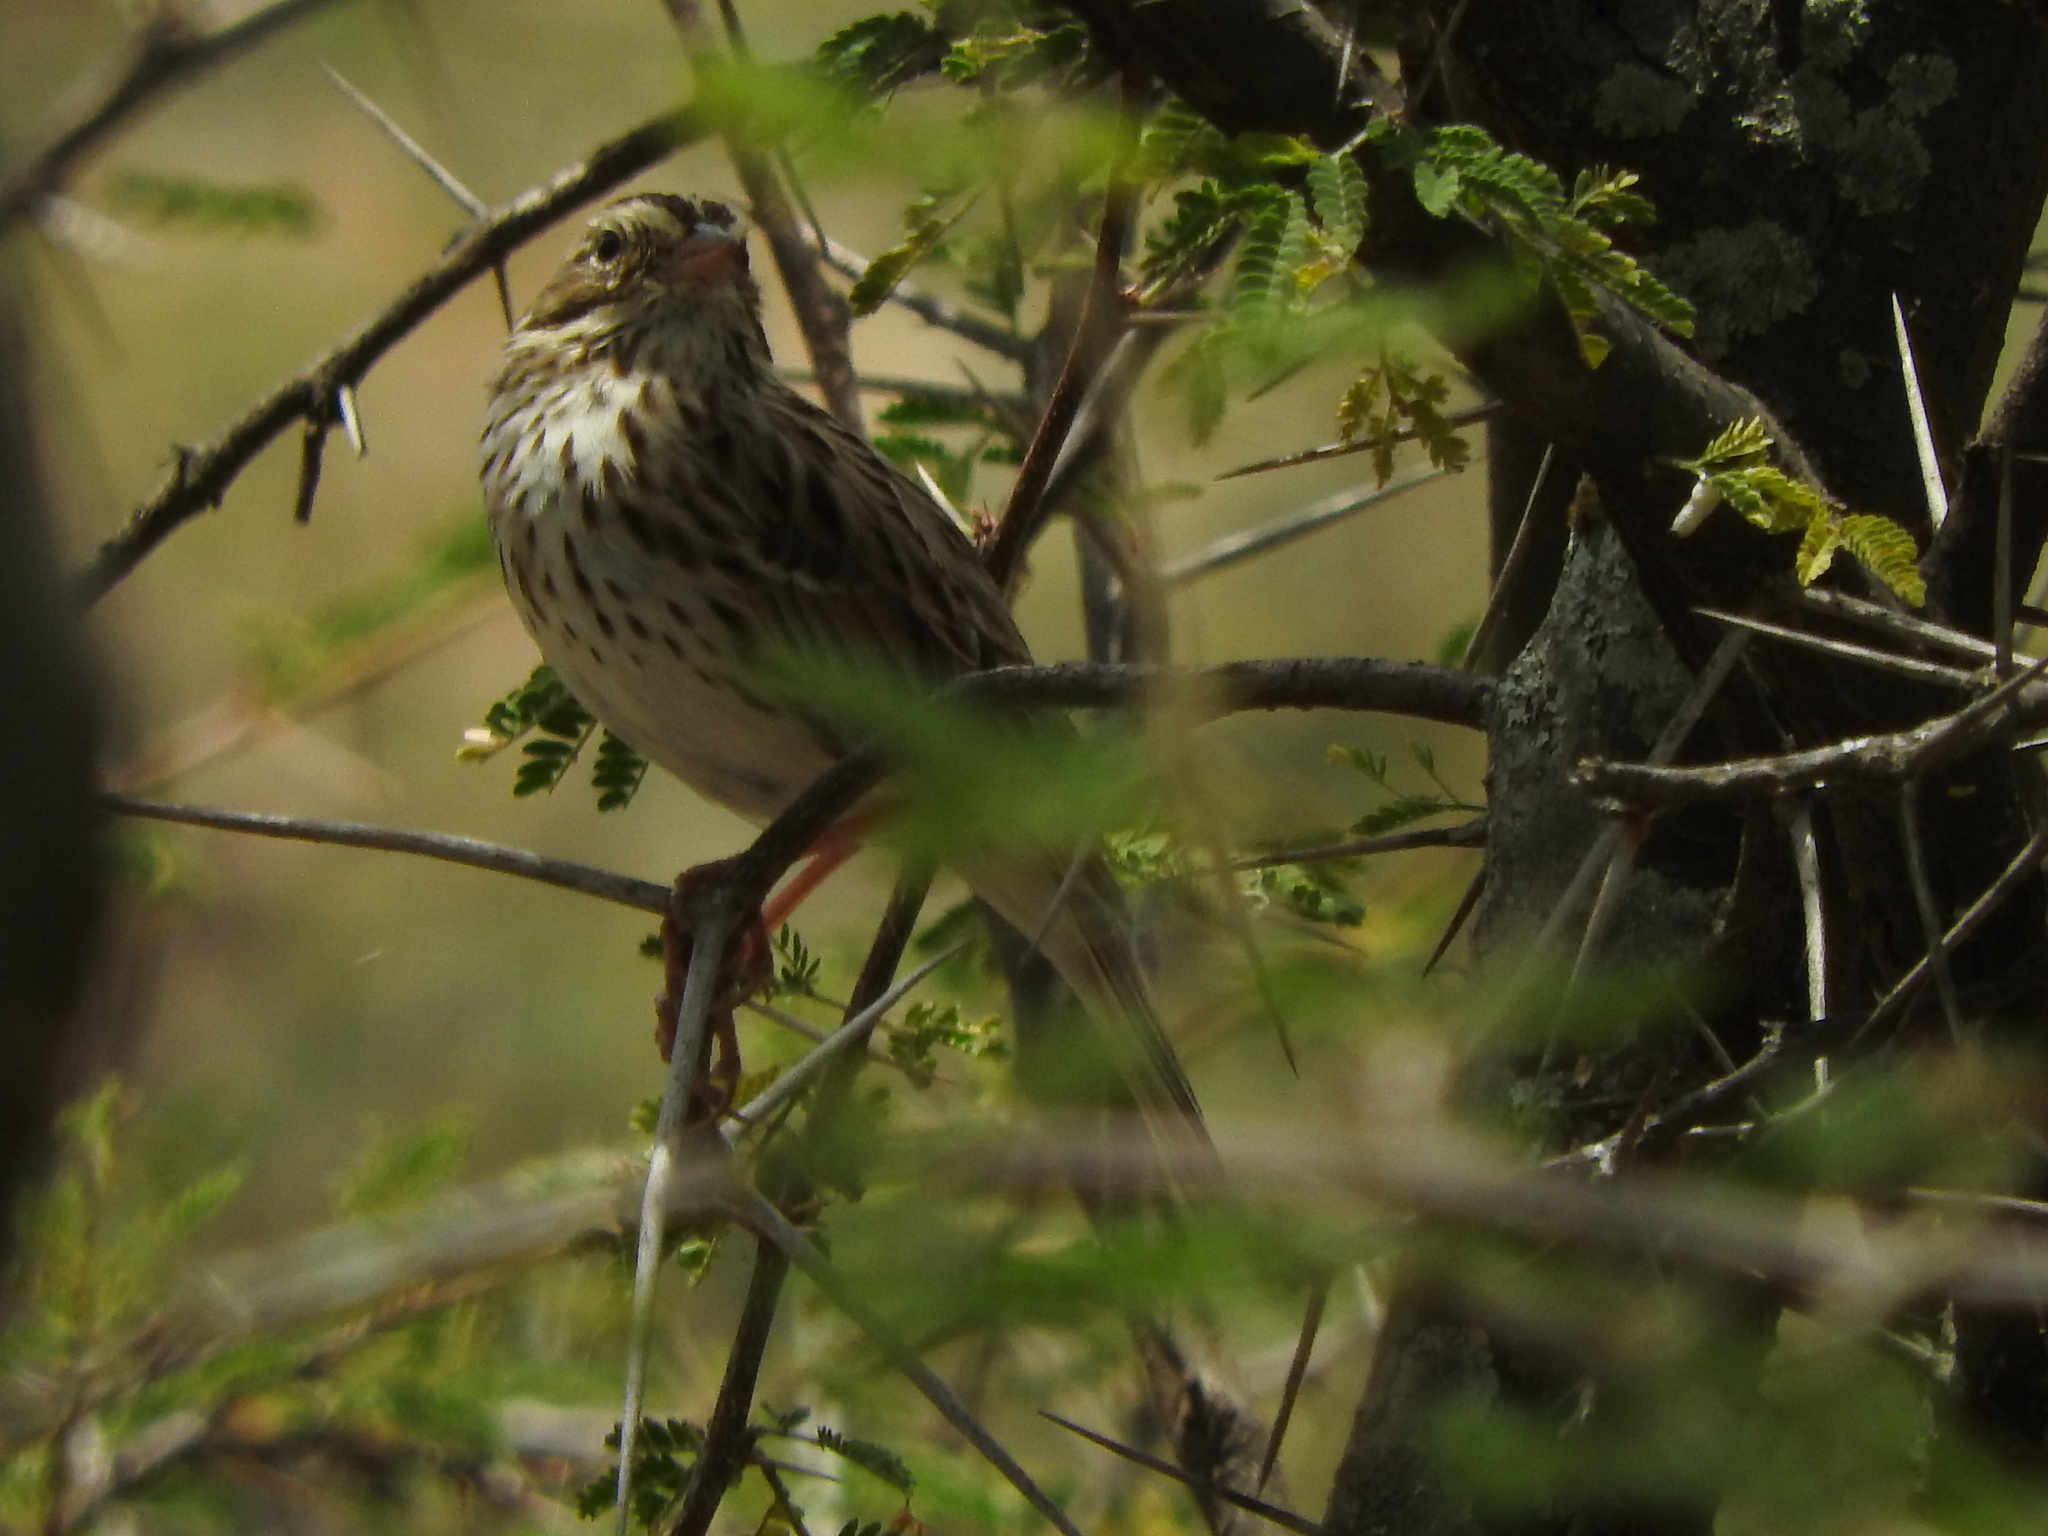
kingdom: Animalia
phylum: Chordata
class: Aves
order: Passeriformes
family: Passerellidae
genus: Passerculus
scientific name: Passerculus sandwichensis
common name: Savannah sparrow
